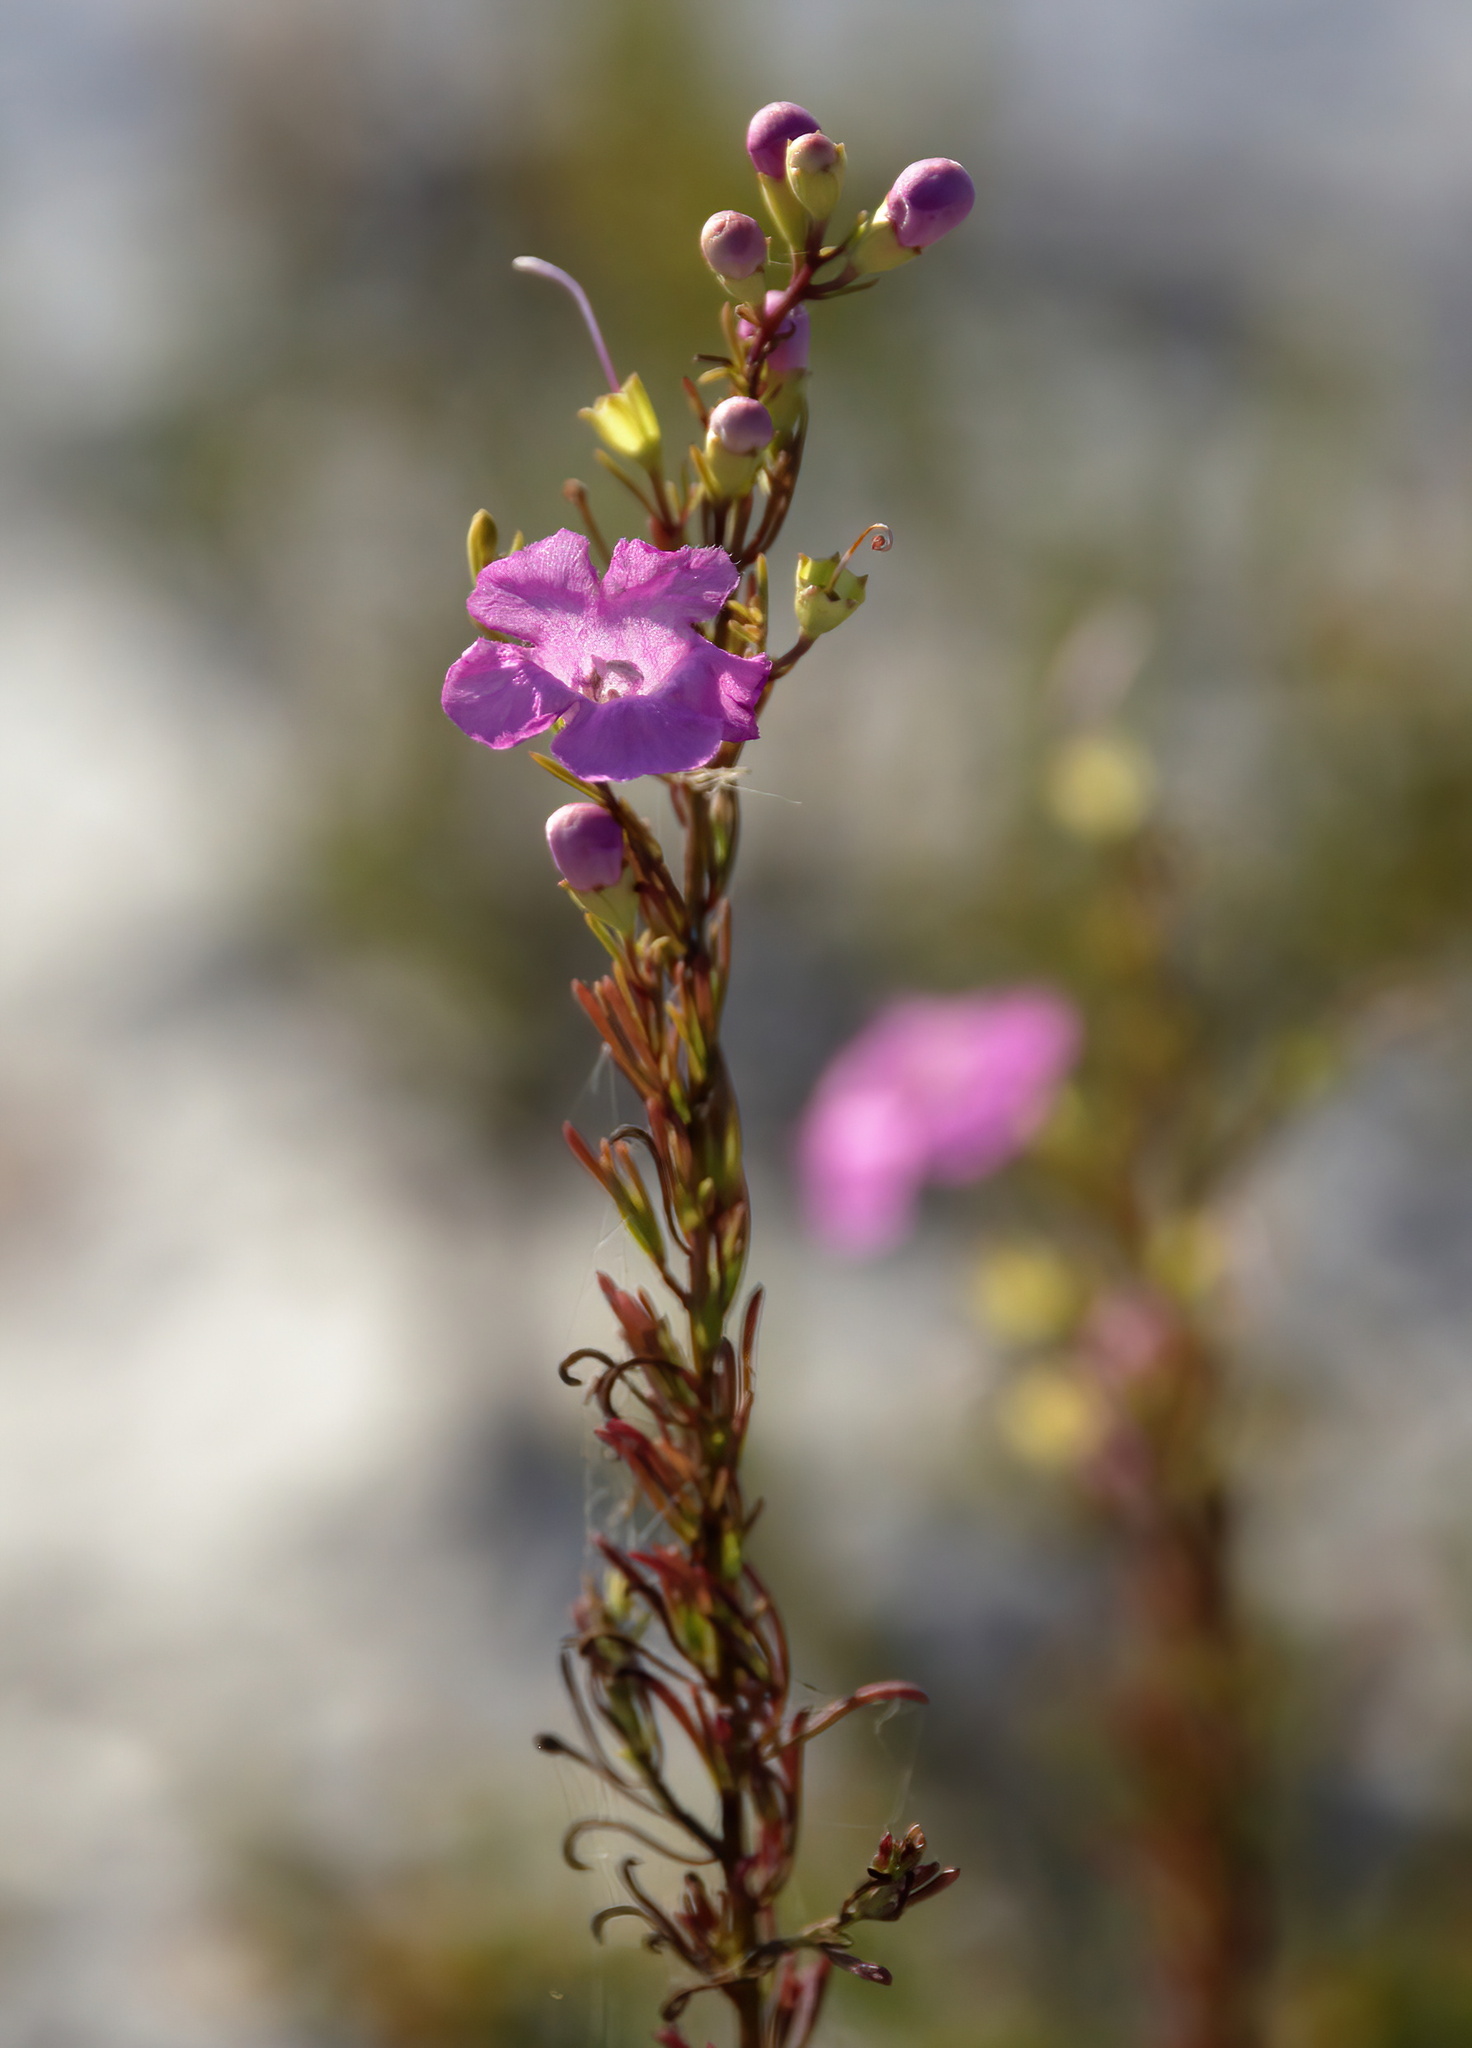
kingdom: Plantae
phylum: Tracheophyta
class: Magnoliopsida
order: Lamiales
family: Orobanchaceae
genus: Agalinis
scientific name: Agalinis fasciculata
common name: Beach false foxglove
